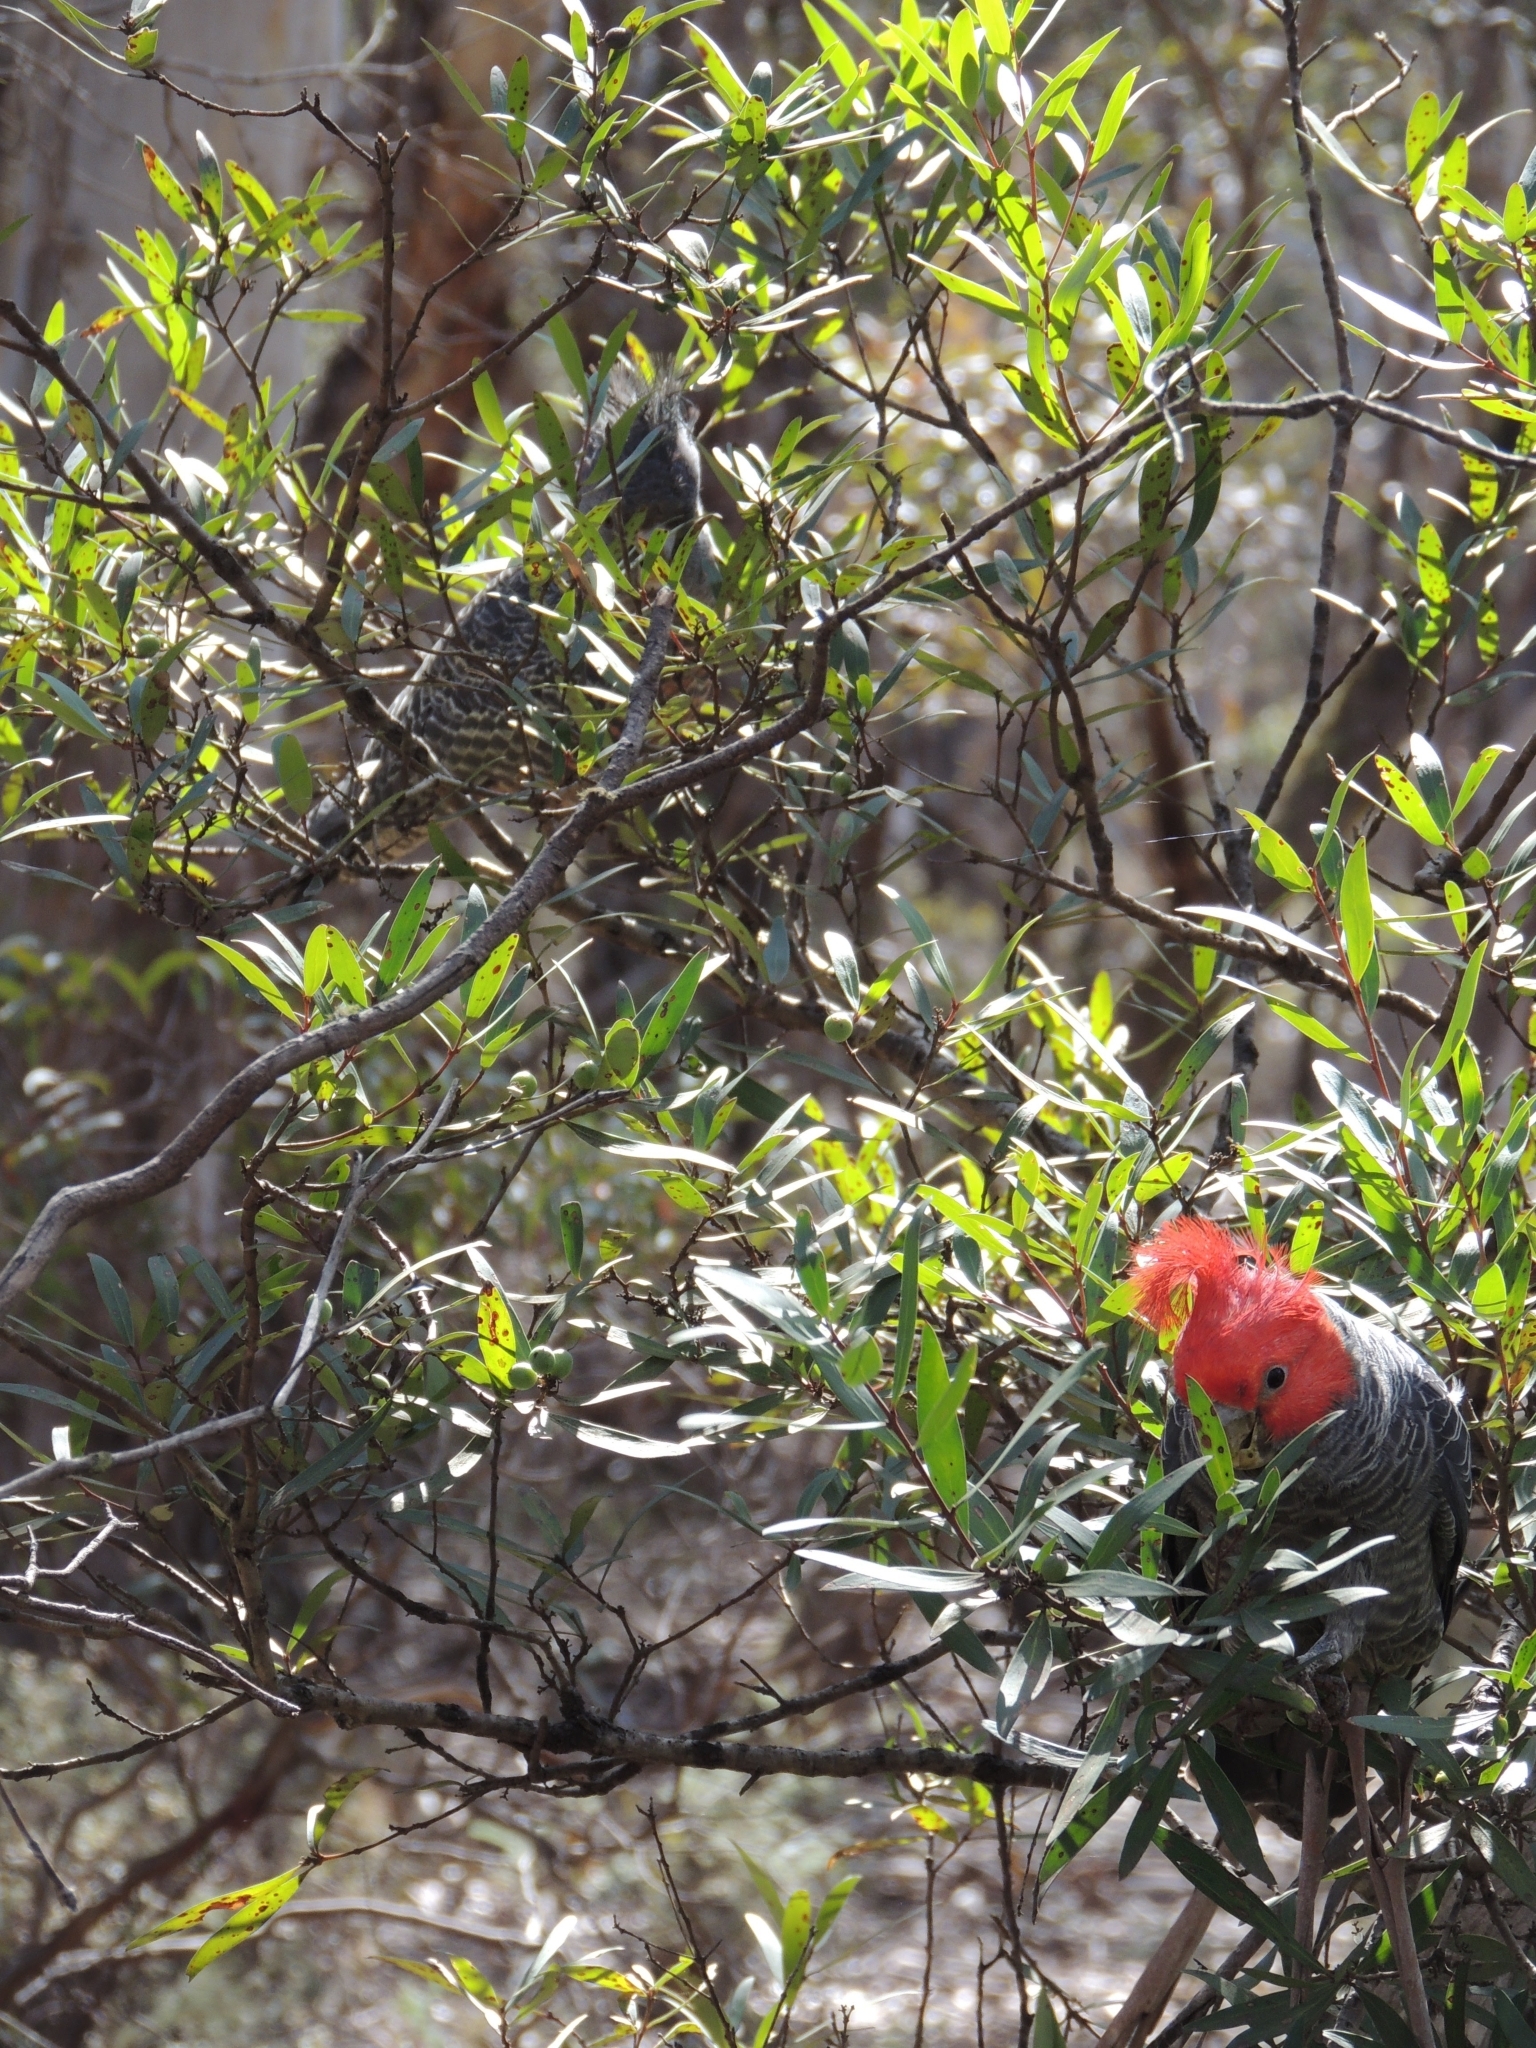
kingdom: Animalia
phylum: Chordata
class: Aves
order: Psittaciformes
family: Psittacidae
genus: Callocephalon
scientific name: Callocephalon fimbriatum
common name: Gang-gang cockatoo
